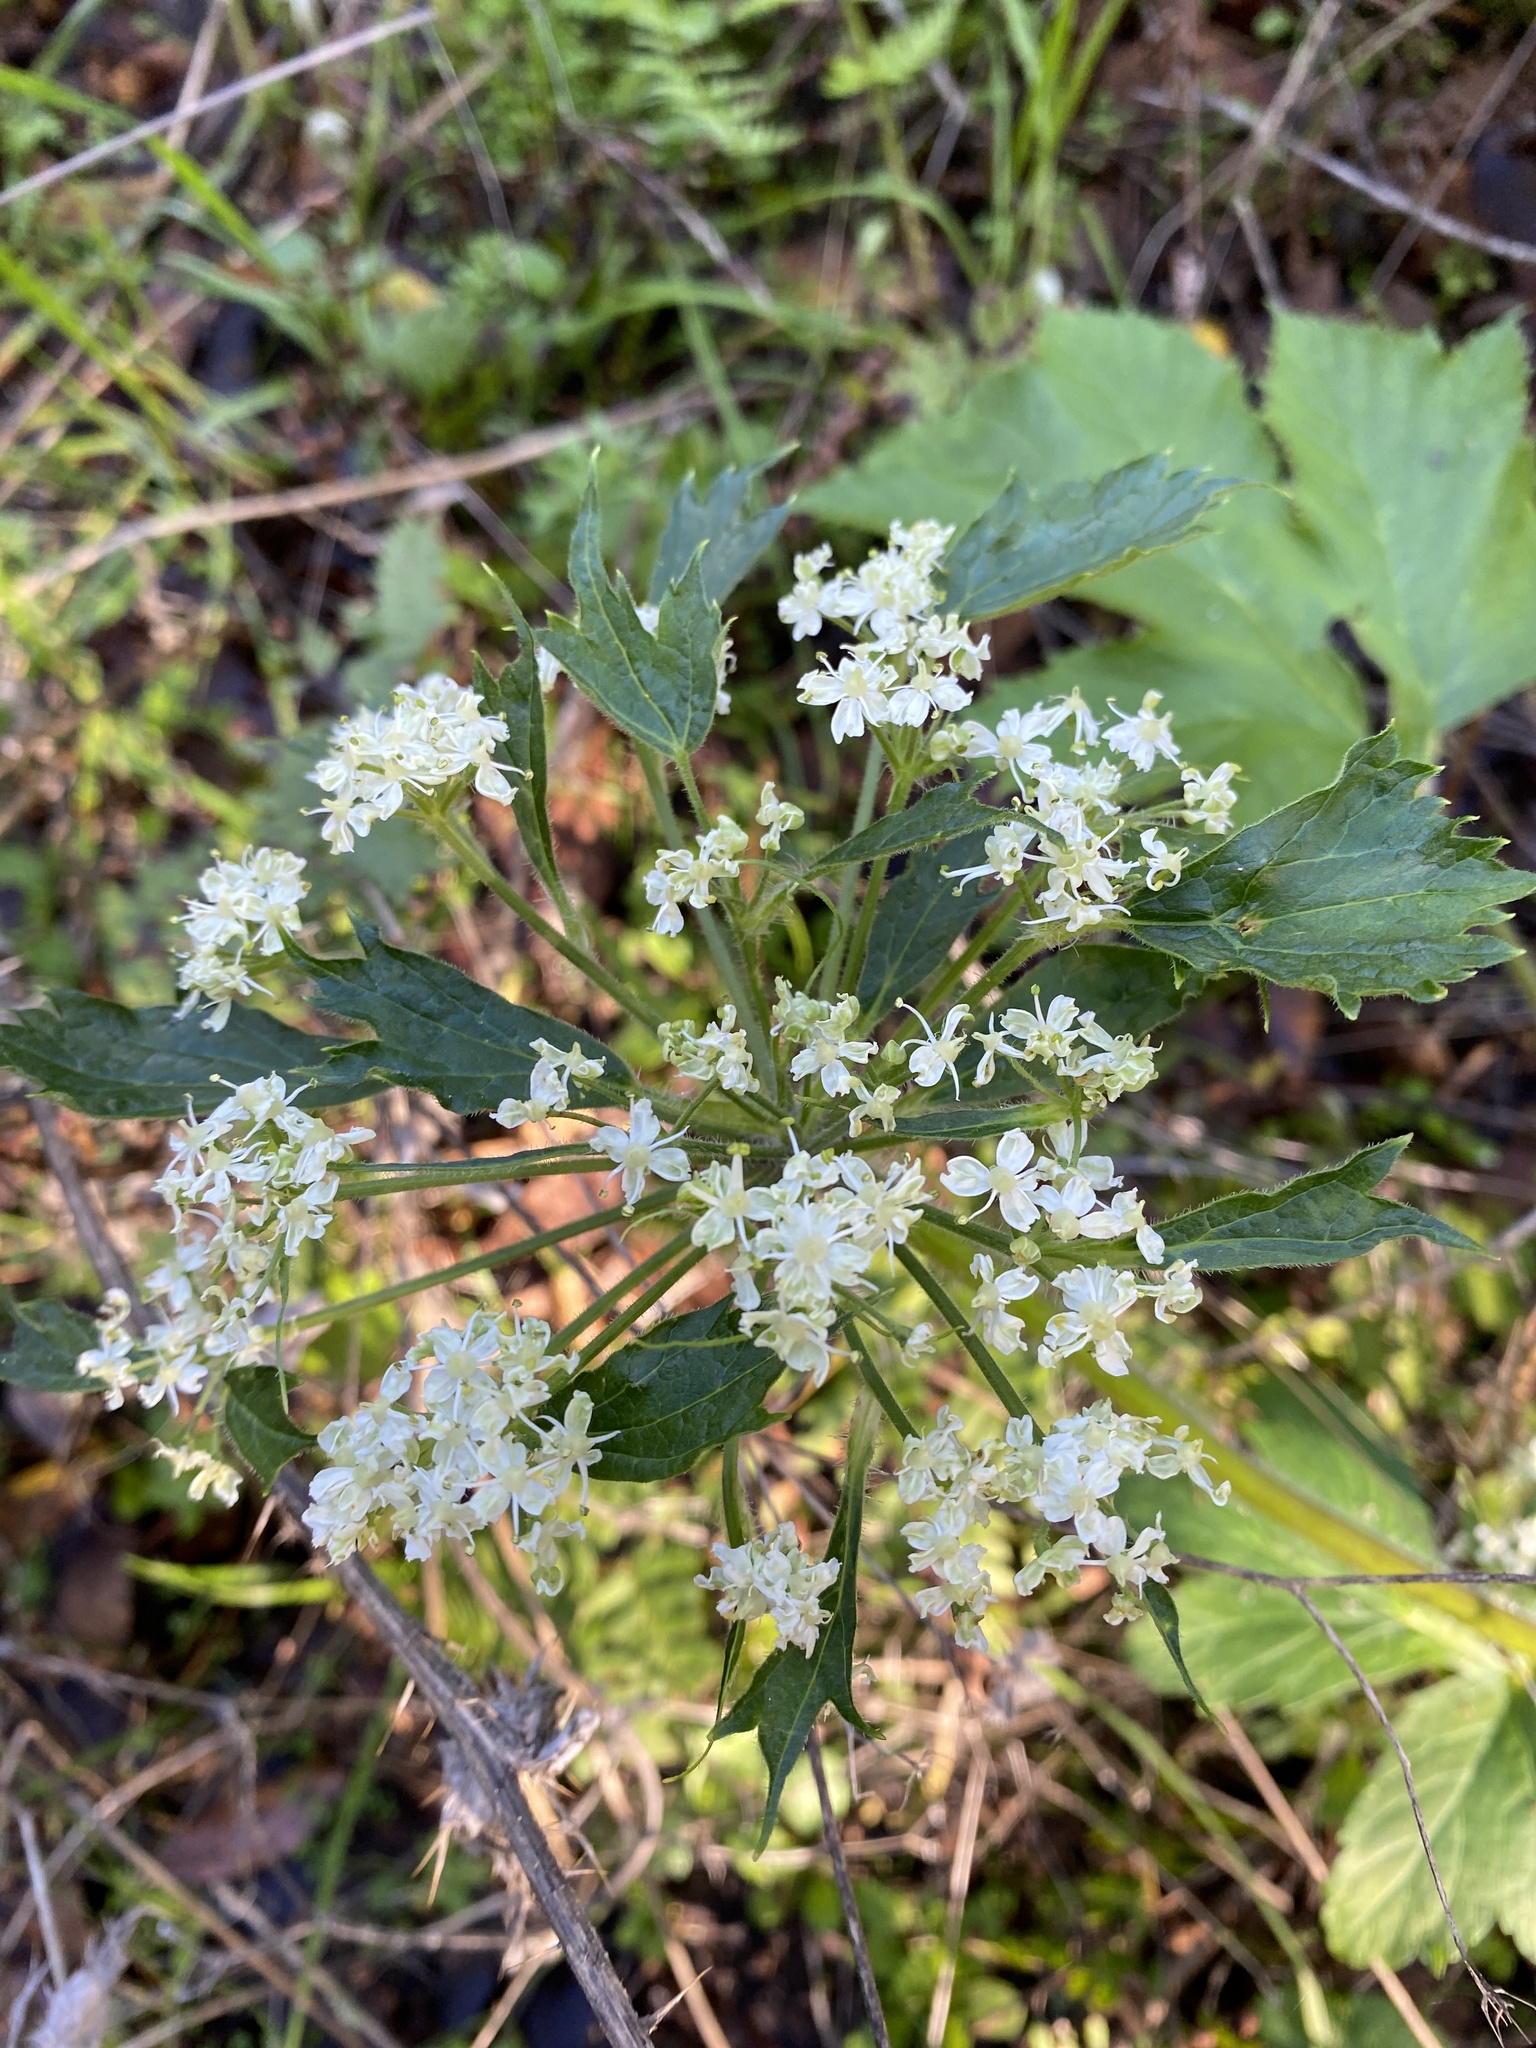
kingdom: Plantae
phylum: Tracheophyta
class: Magnoliopsida
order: Apiales
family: Apiaceae
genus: Heracleum
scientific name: Heracleum maximum
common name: American cow parsnip
